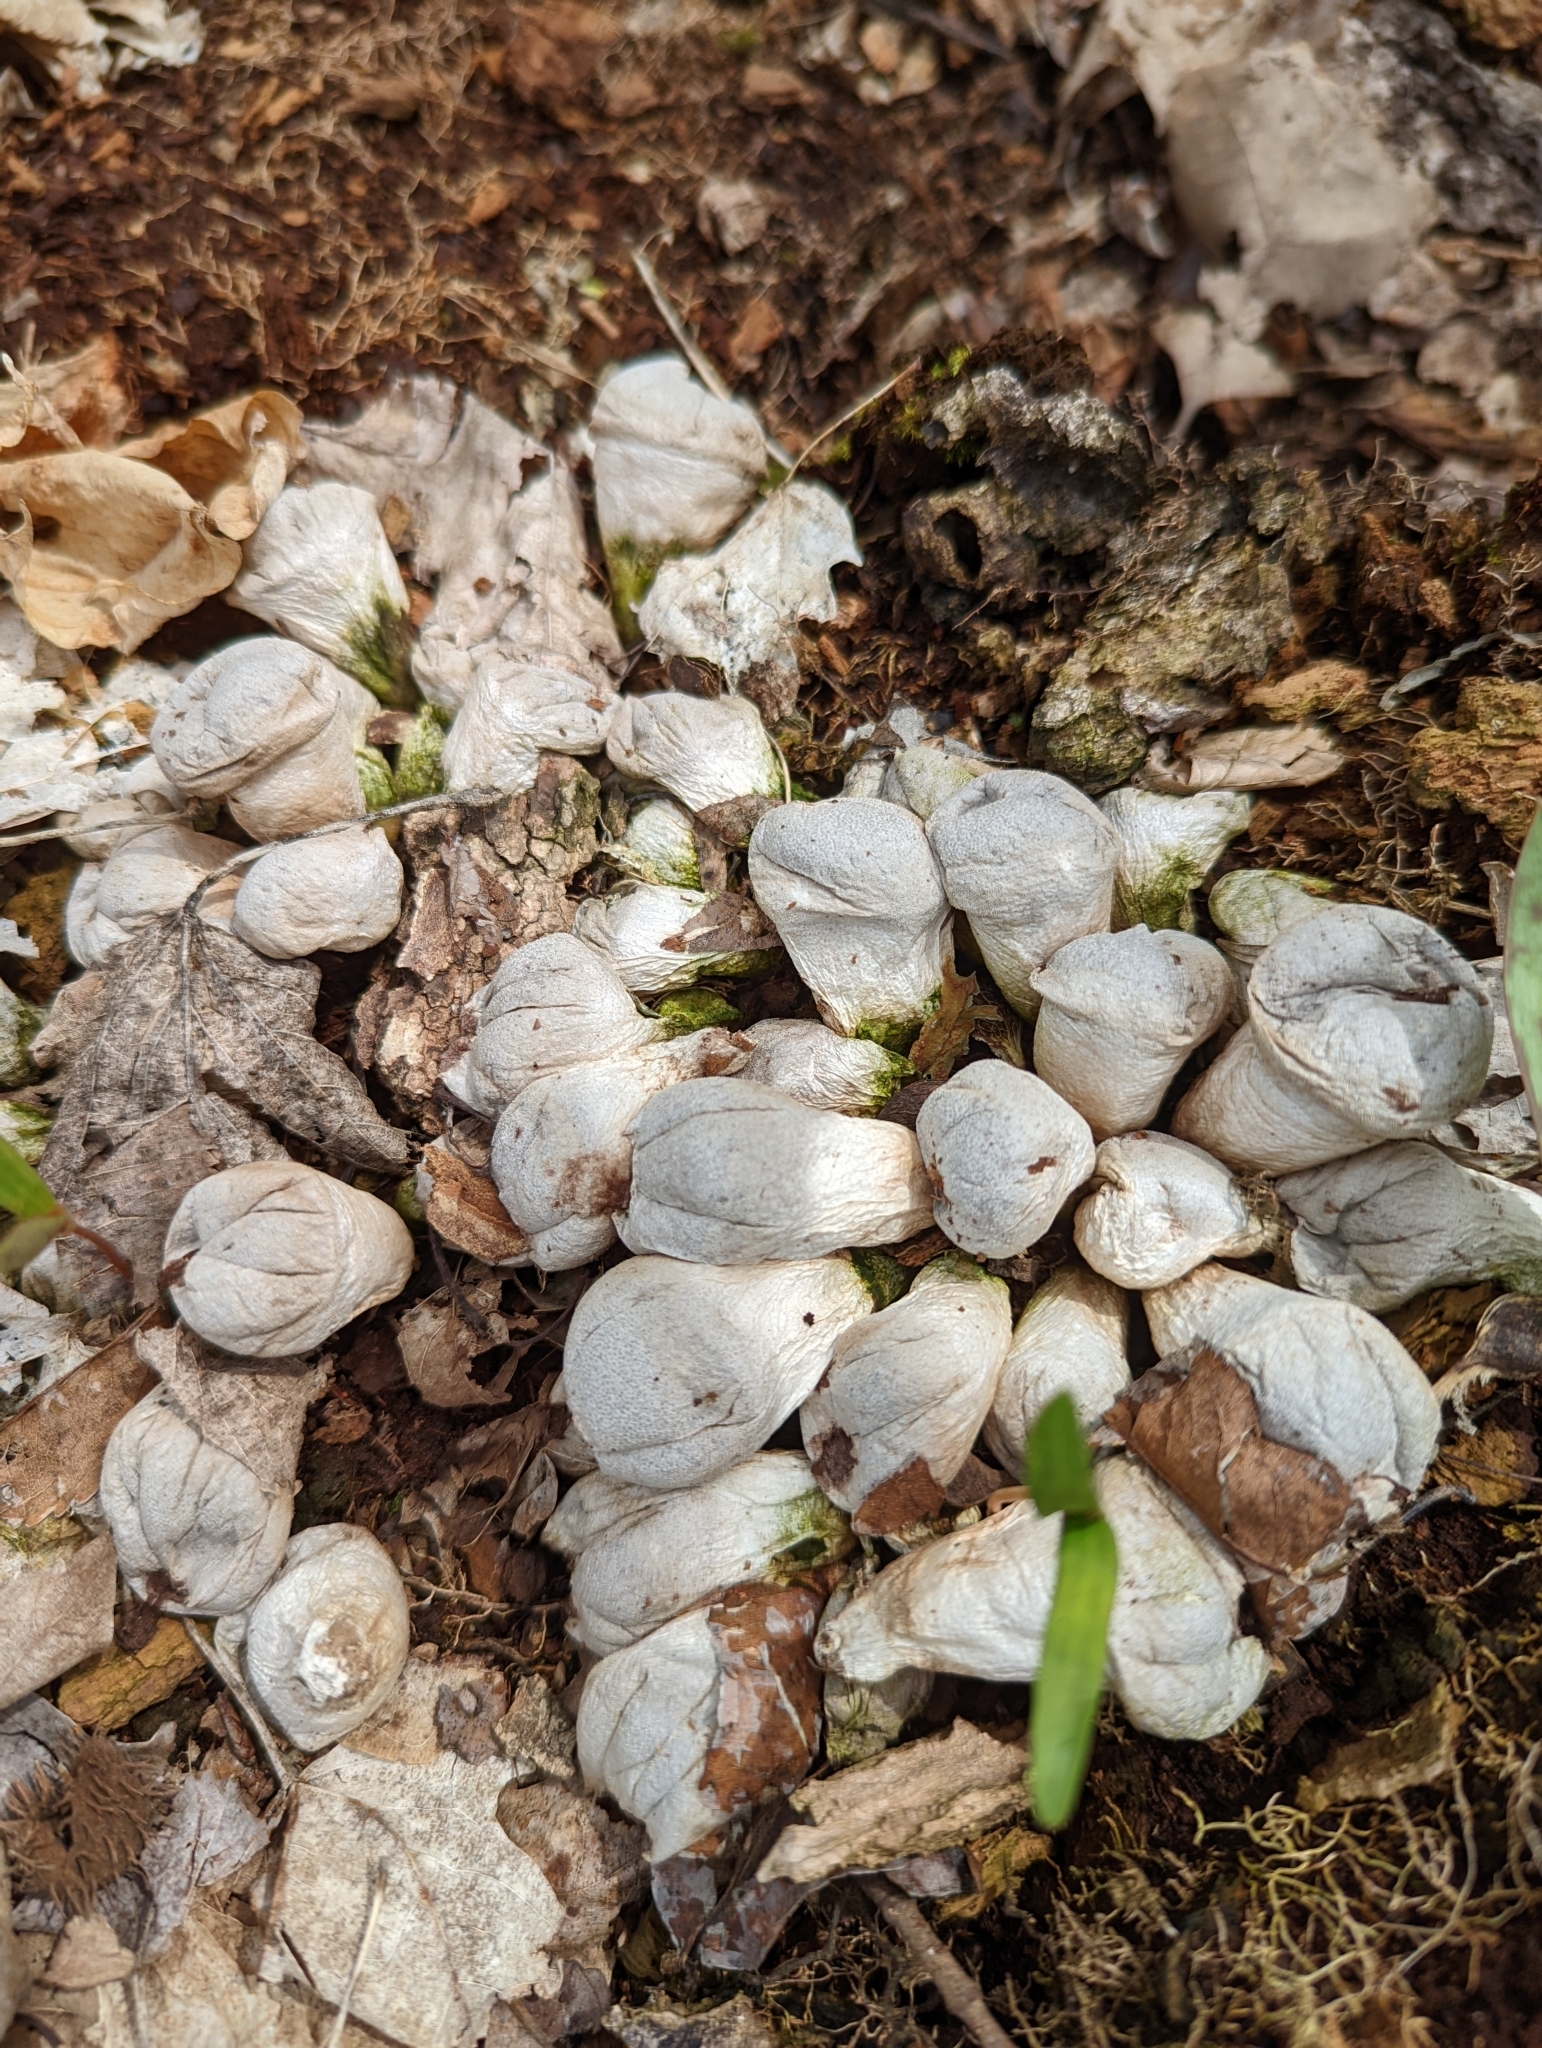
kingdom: Fungi
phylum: Basidiomycota
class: Agaricomycetes
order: Agaricales
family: Lycoperdaceae
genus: Apioperdon
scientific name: Apioperdon pyriforme
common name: Pear-shaped puffball
